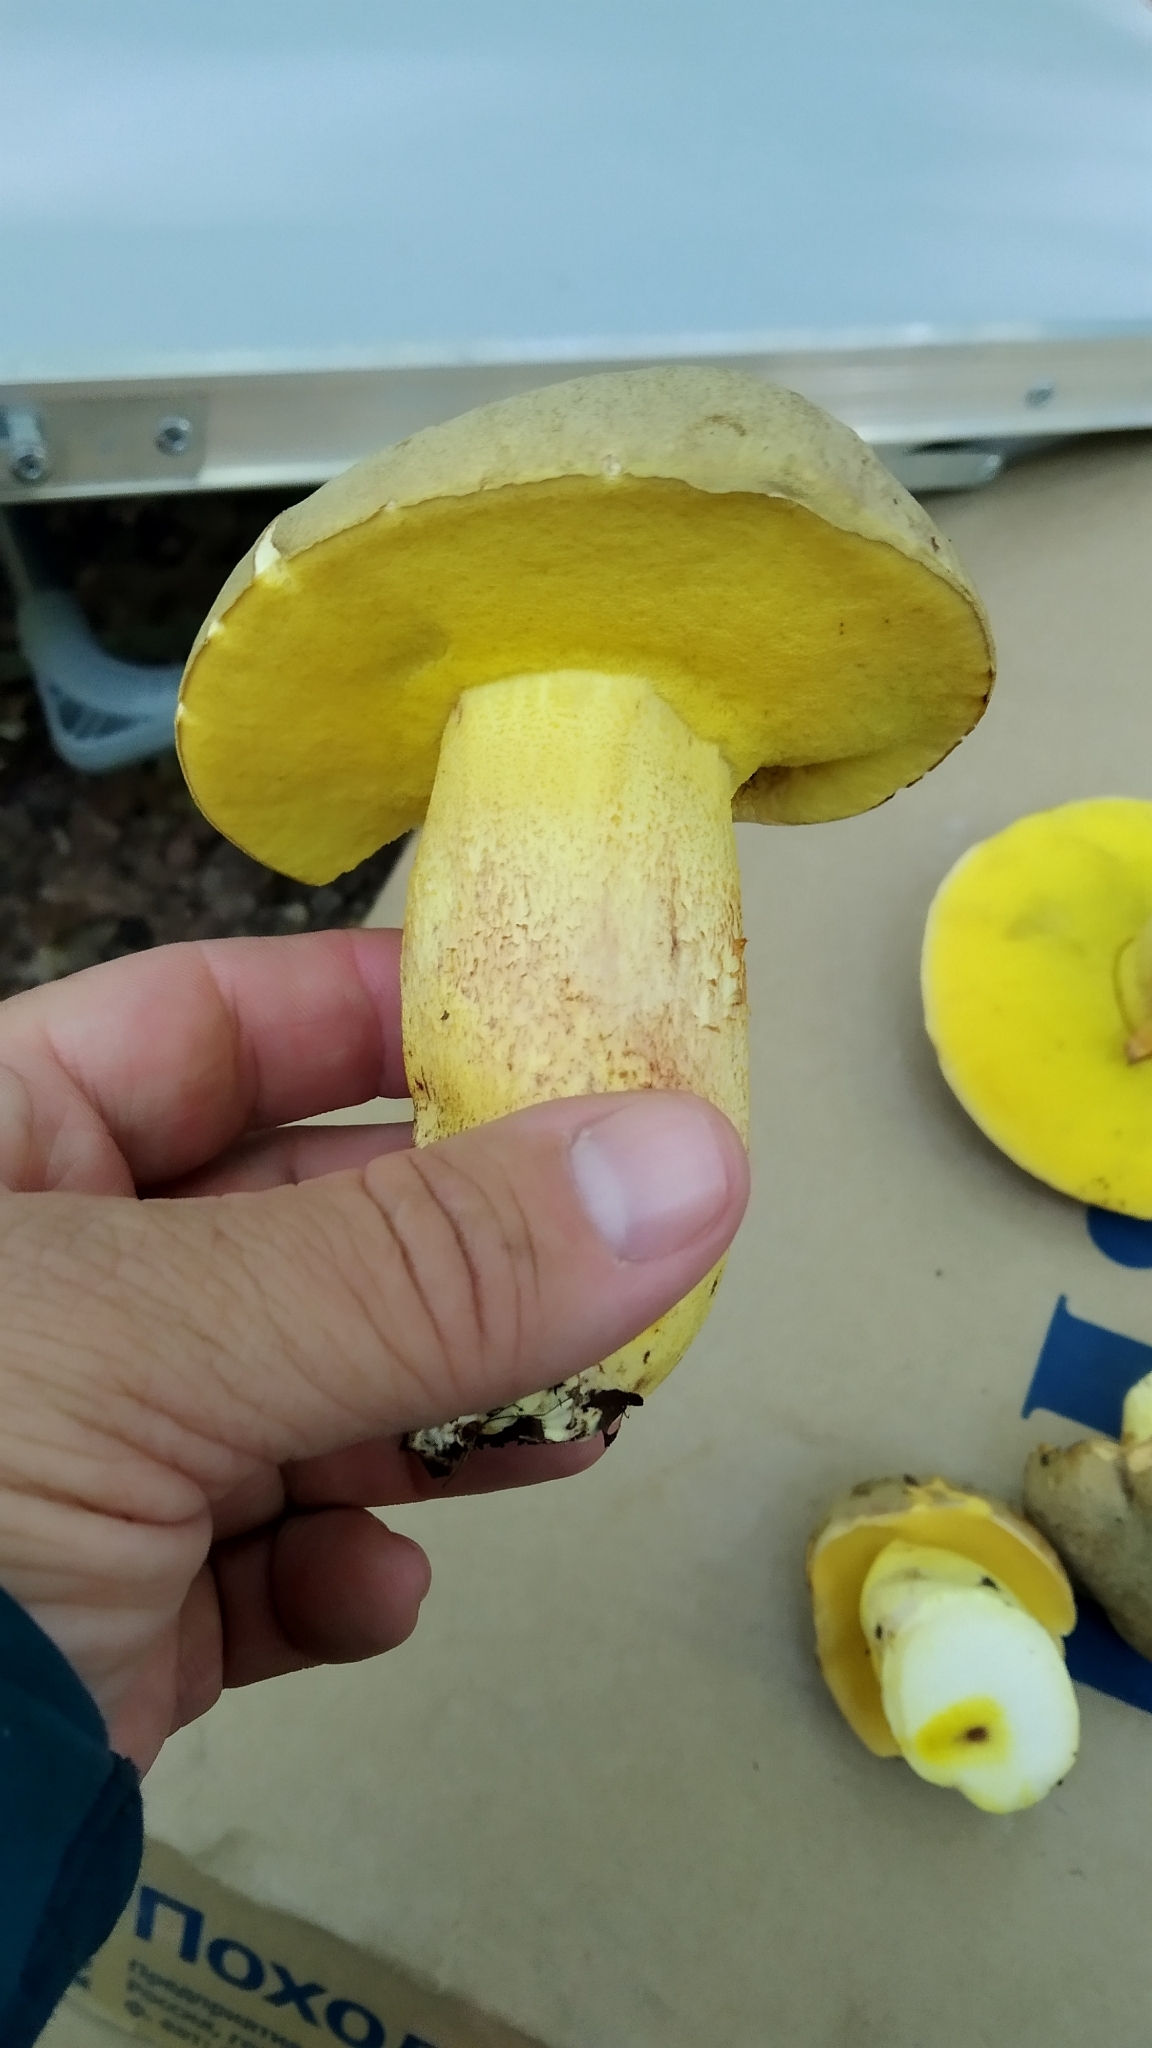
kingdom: Fungi
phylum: Basidiomycota
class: Agaricomycetes
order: Boletales
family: Boletaceae
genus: Hemileccinum
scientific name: Hemileccinum impolitum
